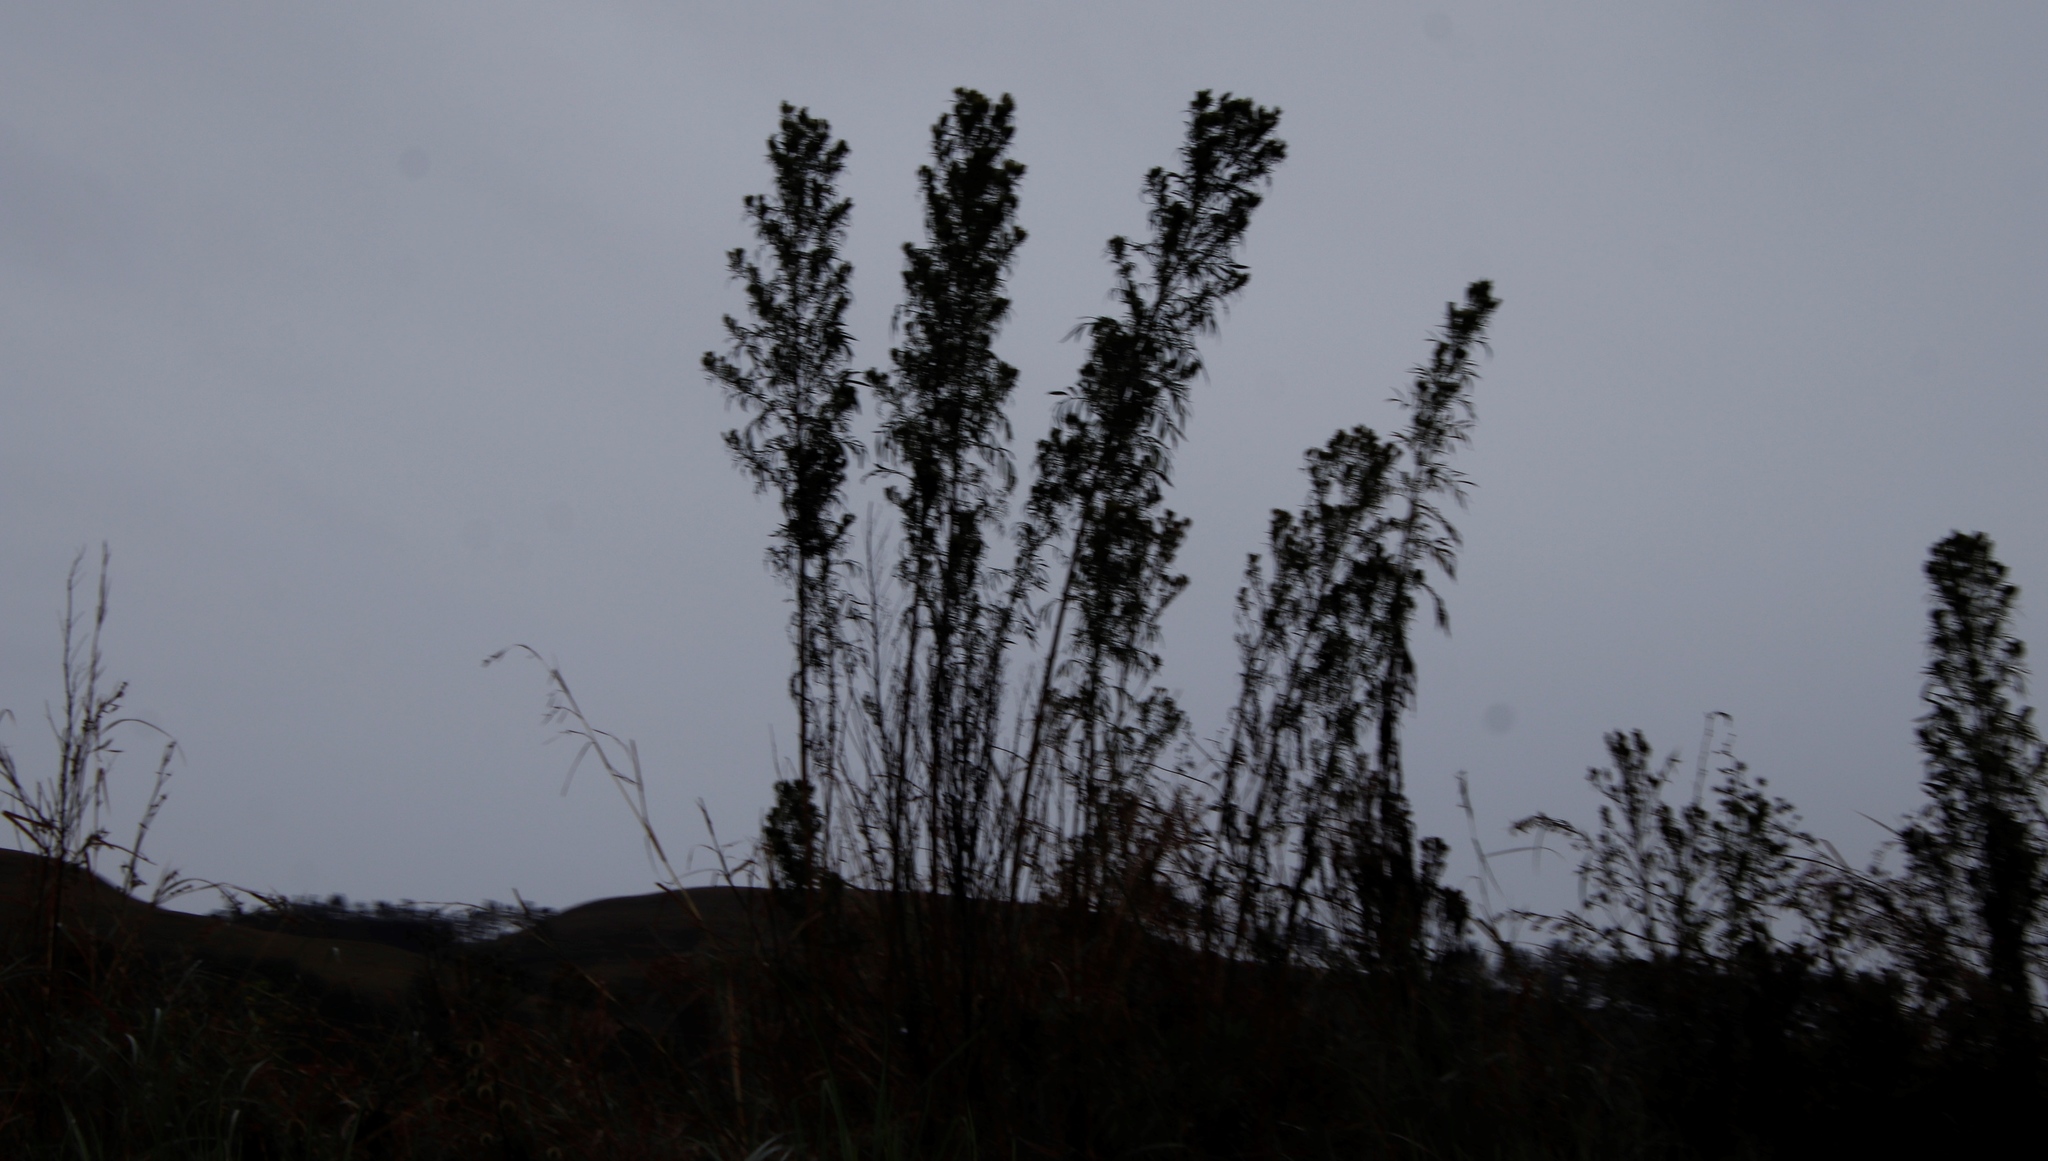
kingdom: Plantae
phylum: Tracheophyta
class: Magnoliopsida
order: Asterales
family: Asteraceae
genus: Tagetes
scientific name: Tagetes minuta
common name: Muster john henry
